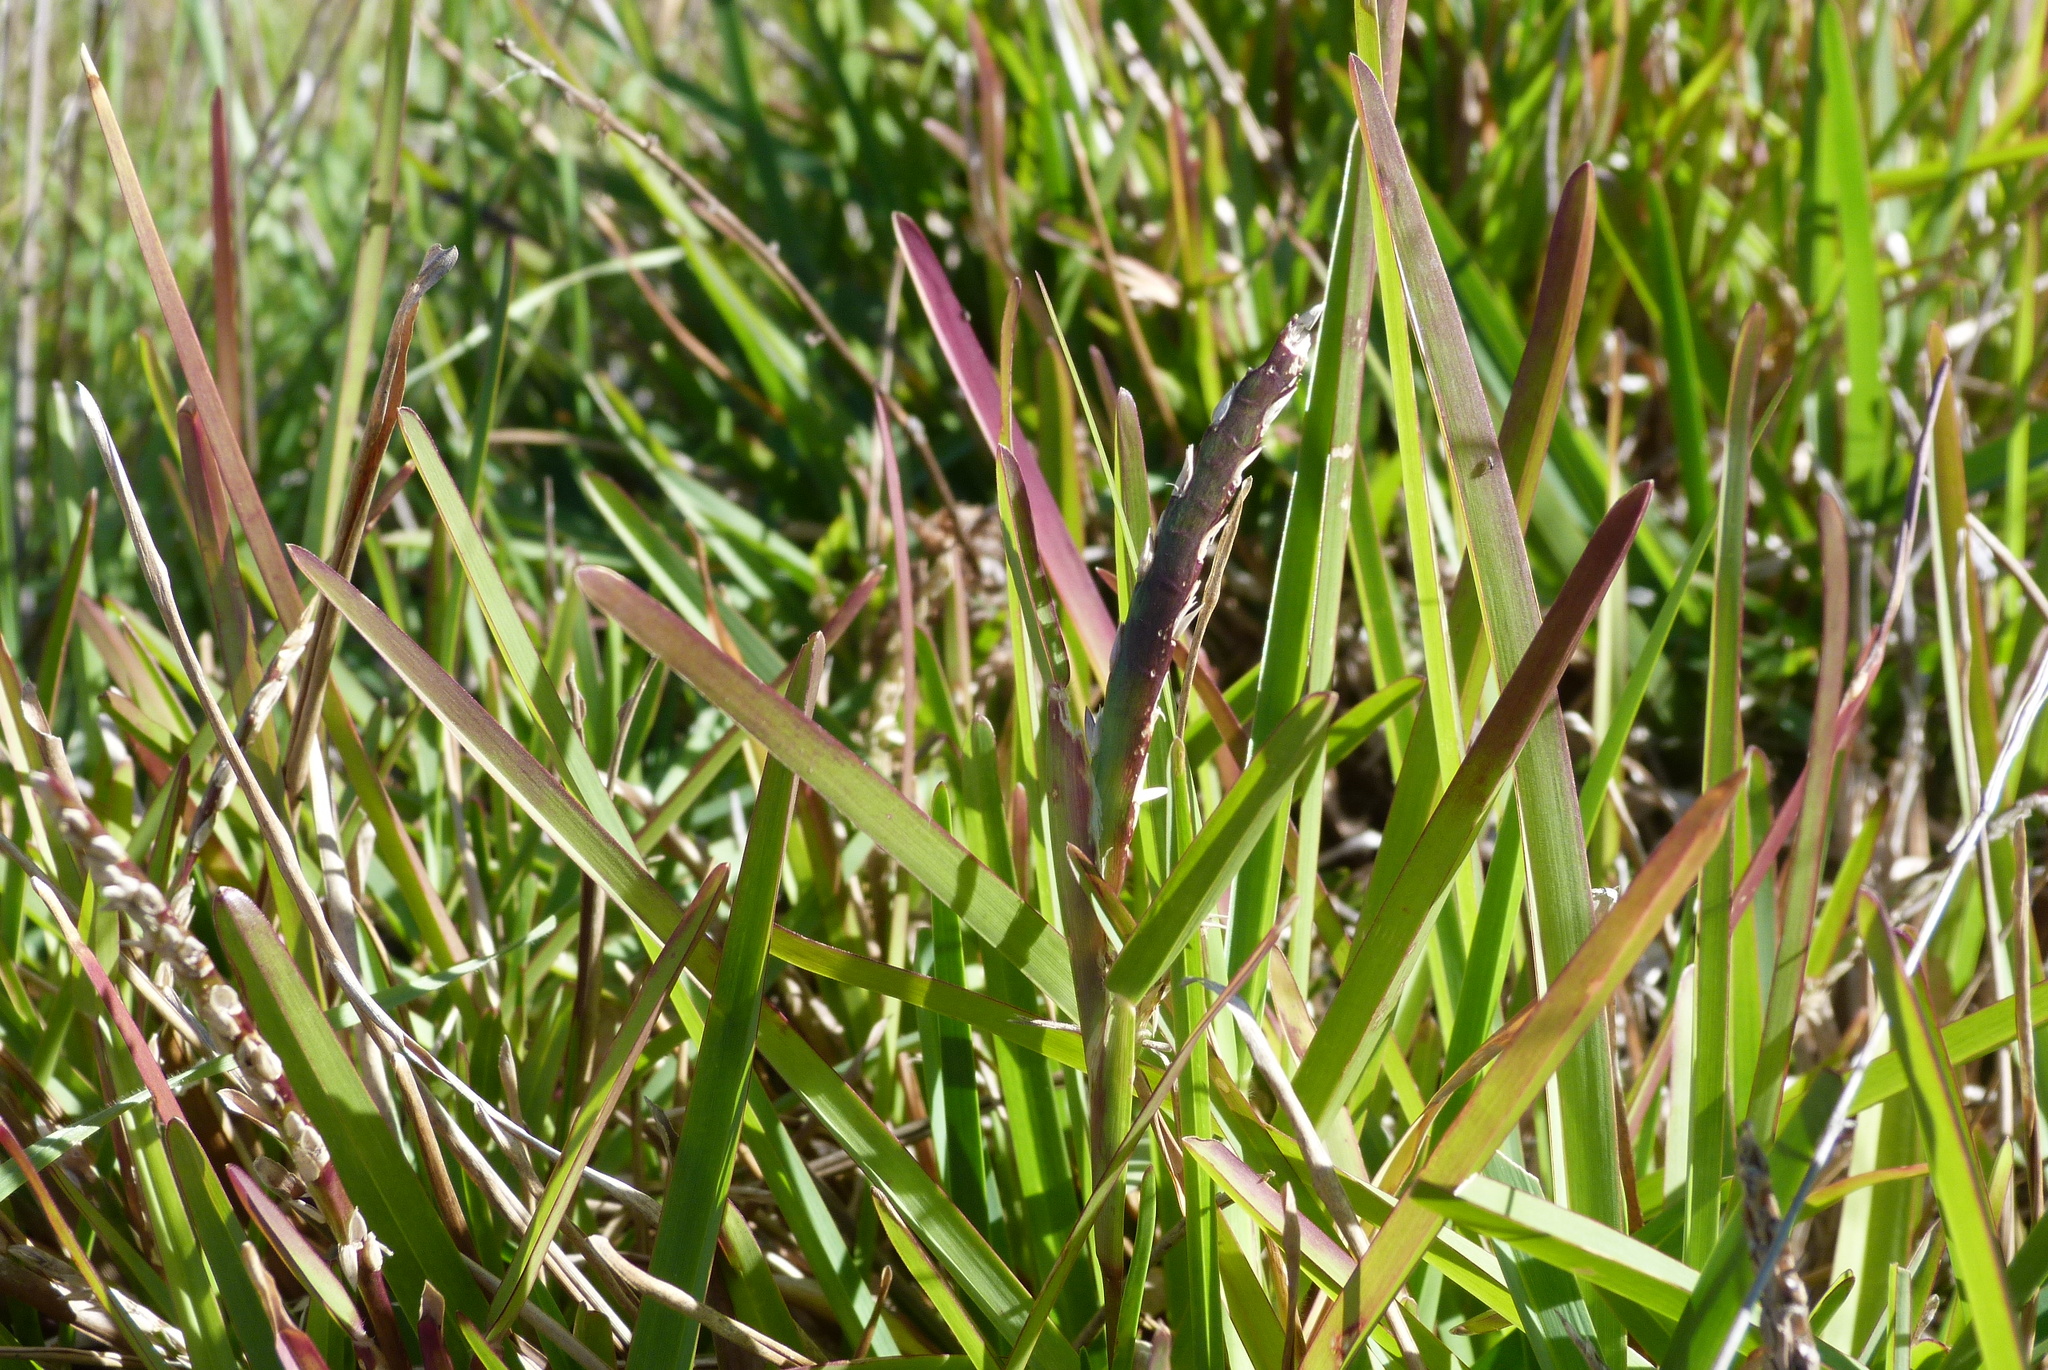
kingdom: Plantae
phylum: Tracheophyta
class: Liliopsida
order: Poales
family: Poaceae
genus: Paspalum
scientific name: Paspalum dilatatum
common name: Dallisgrass
